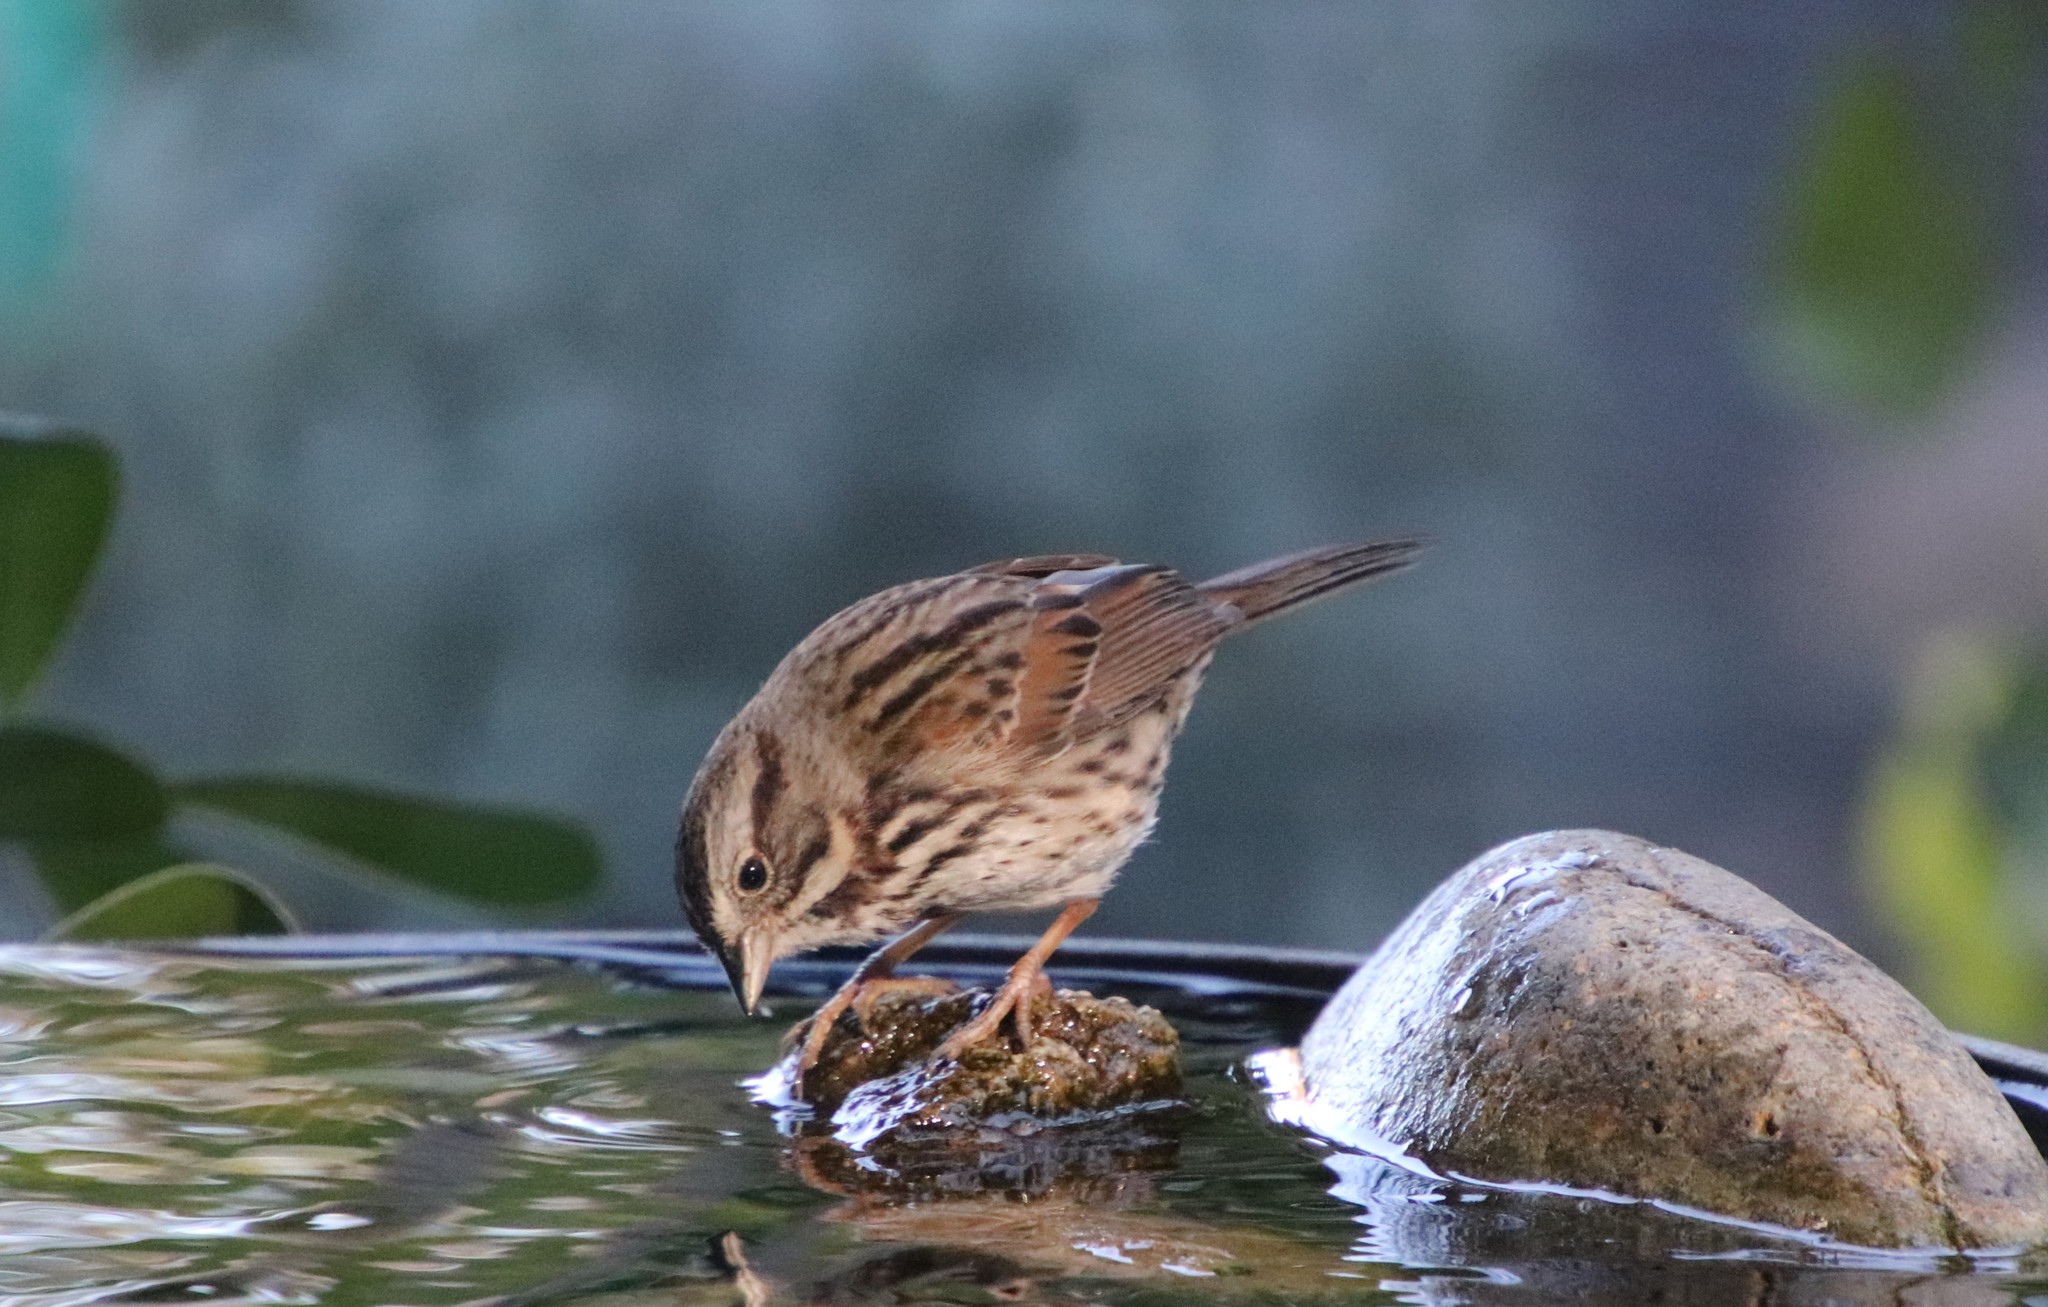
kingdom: Animalia
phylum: Chordata
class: Aves
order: Passeriformes
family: Passerellidae
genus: Melospiza
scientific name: Melospiza melodia
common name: Song sparrow
